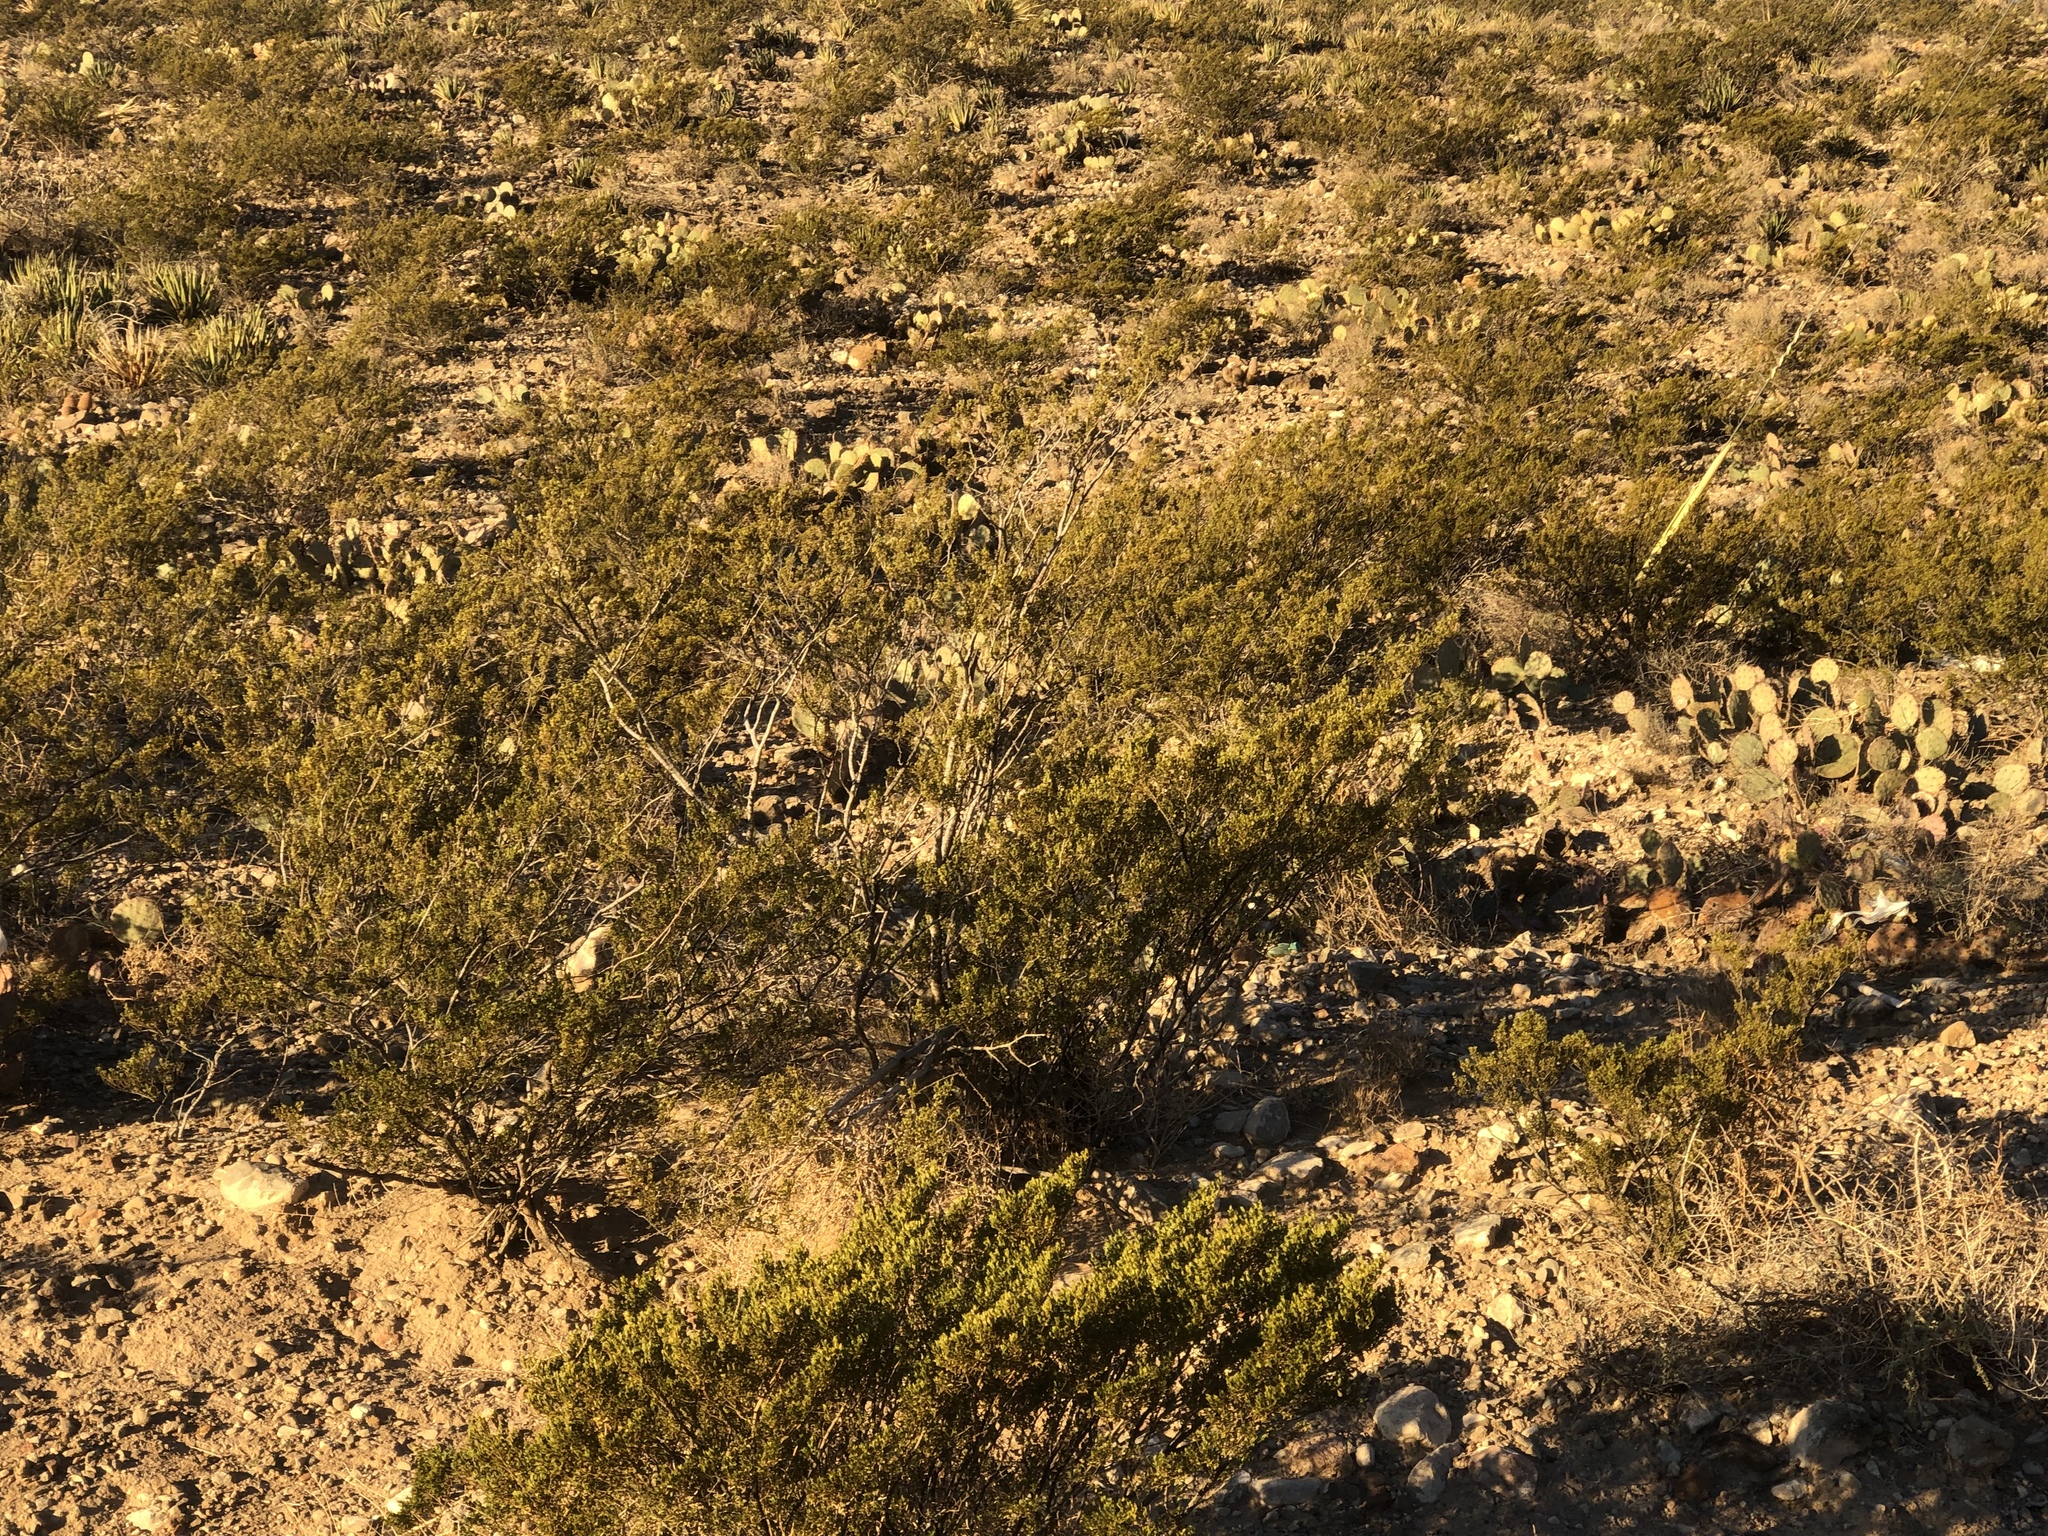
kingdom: Plantae
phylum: Tracheophyta
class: Magnoliopsida
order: Zygophyllales
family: Zygophyllaceae
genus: Larrea
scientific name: Larrea tridentata
